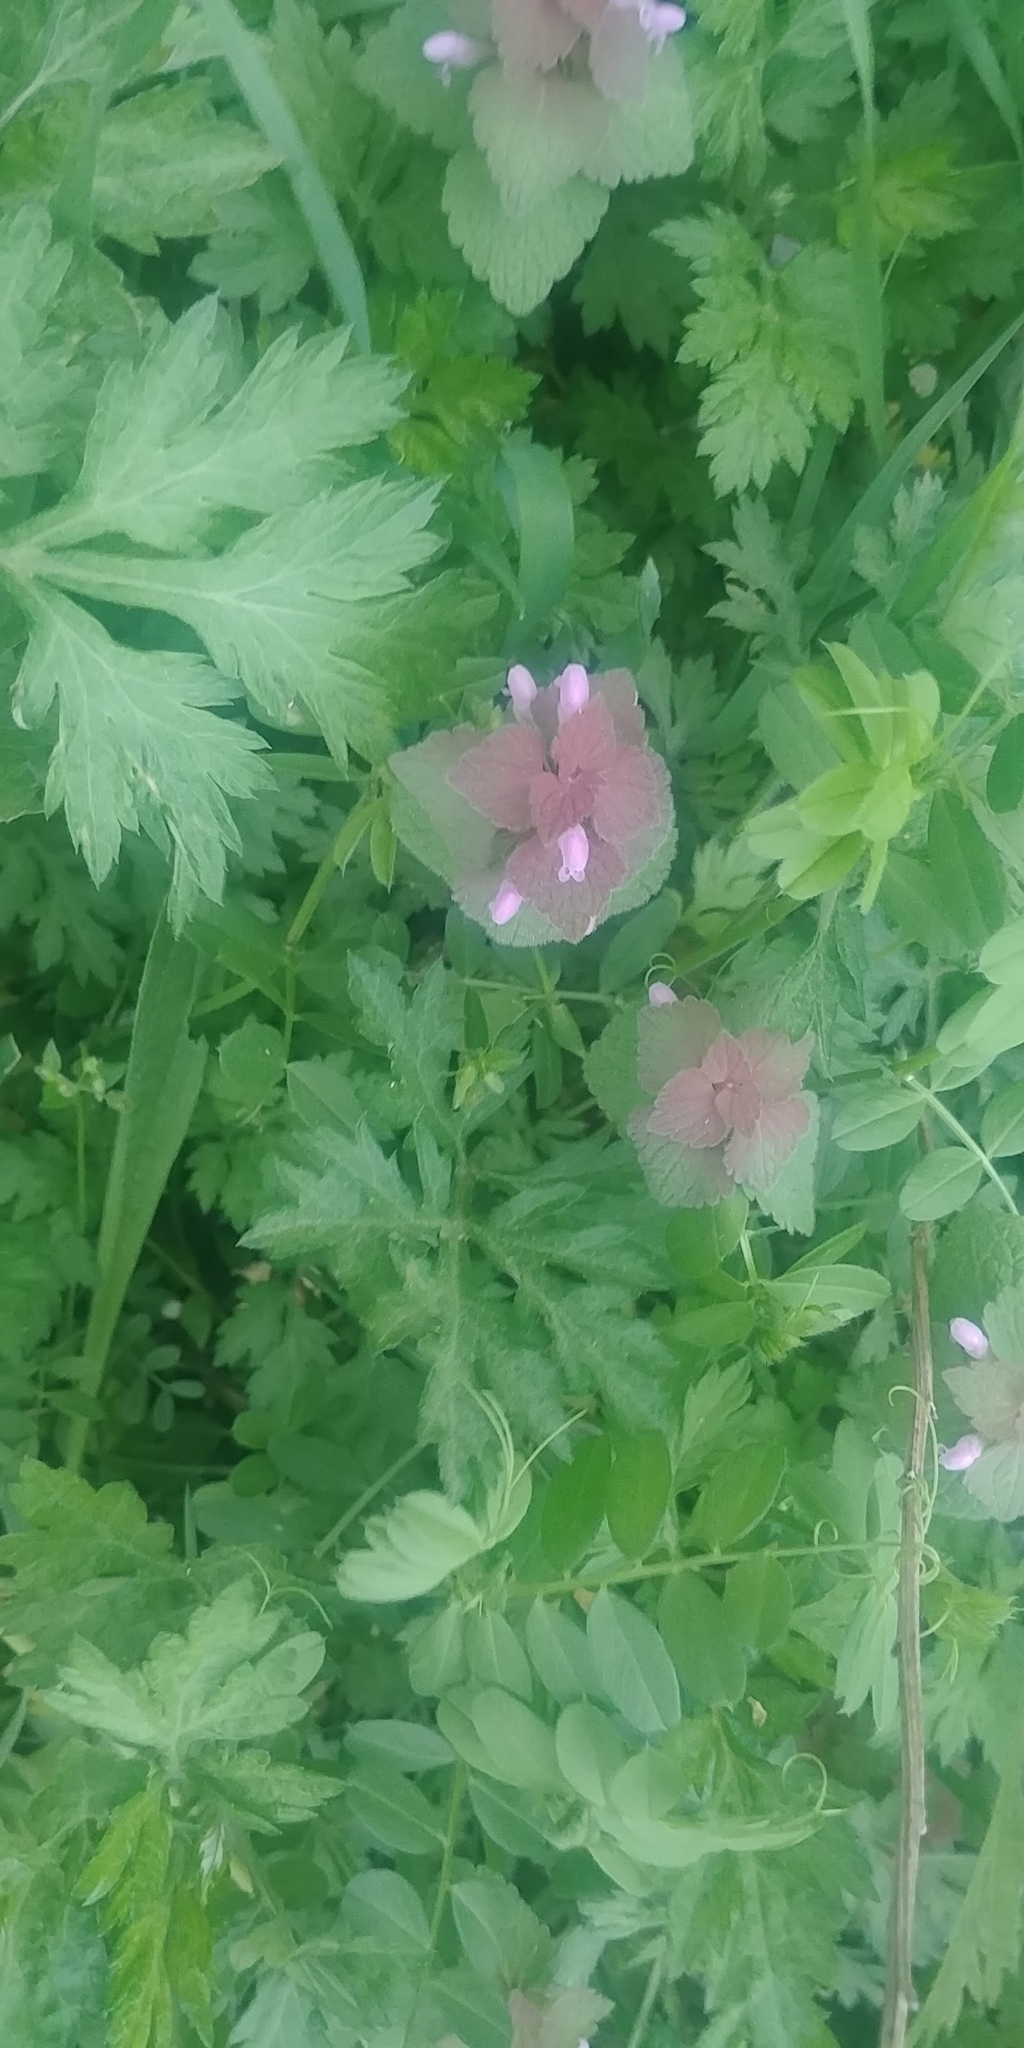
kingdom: Plantae
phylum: Tracheophyta
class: Magnoliopsida
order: Lamiales
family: Lamiaceae
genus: Lamium
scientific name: Lamium purpureum
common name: Red dead-nettle
